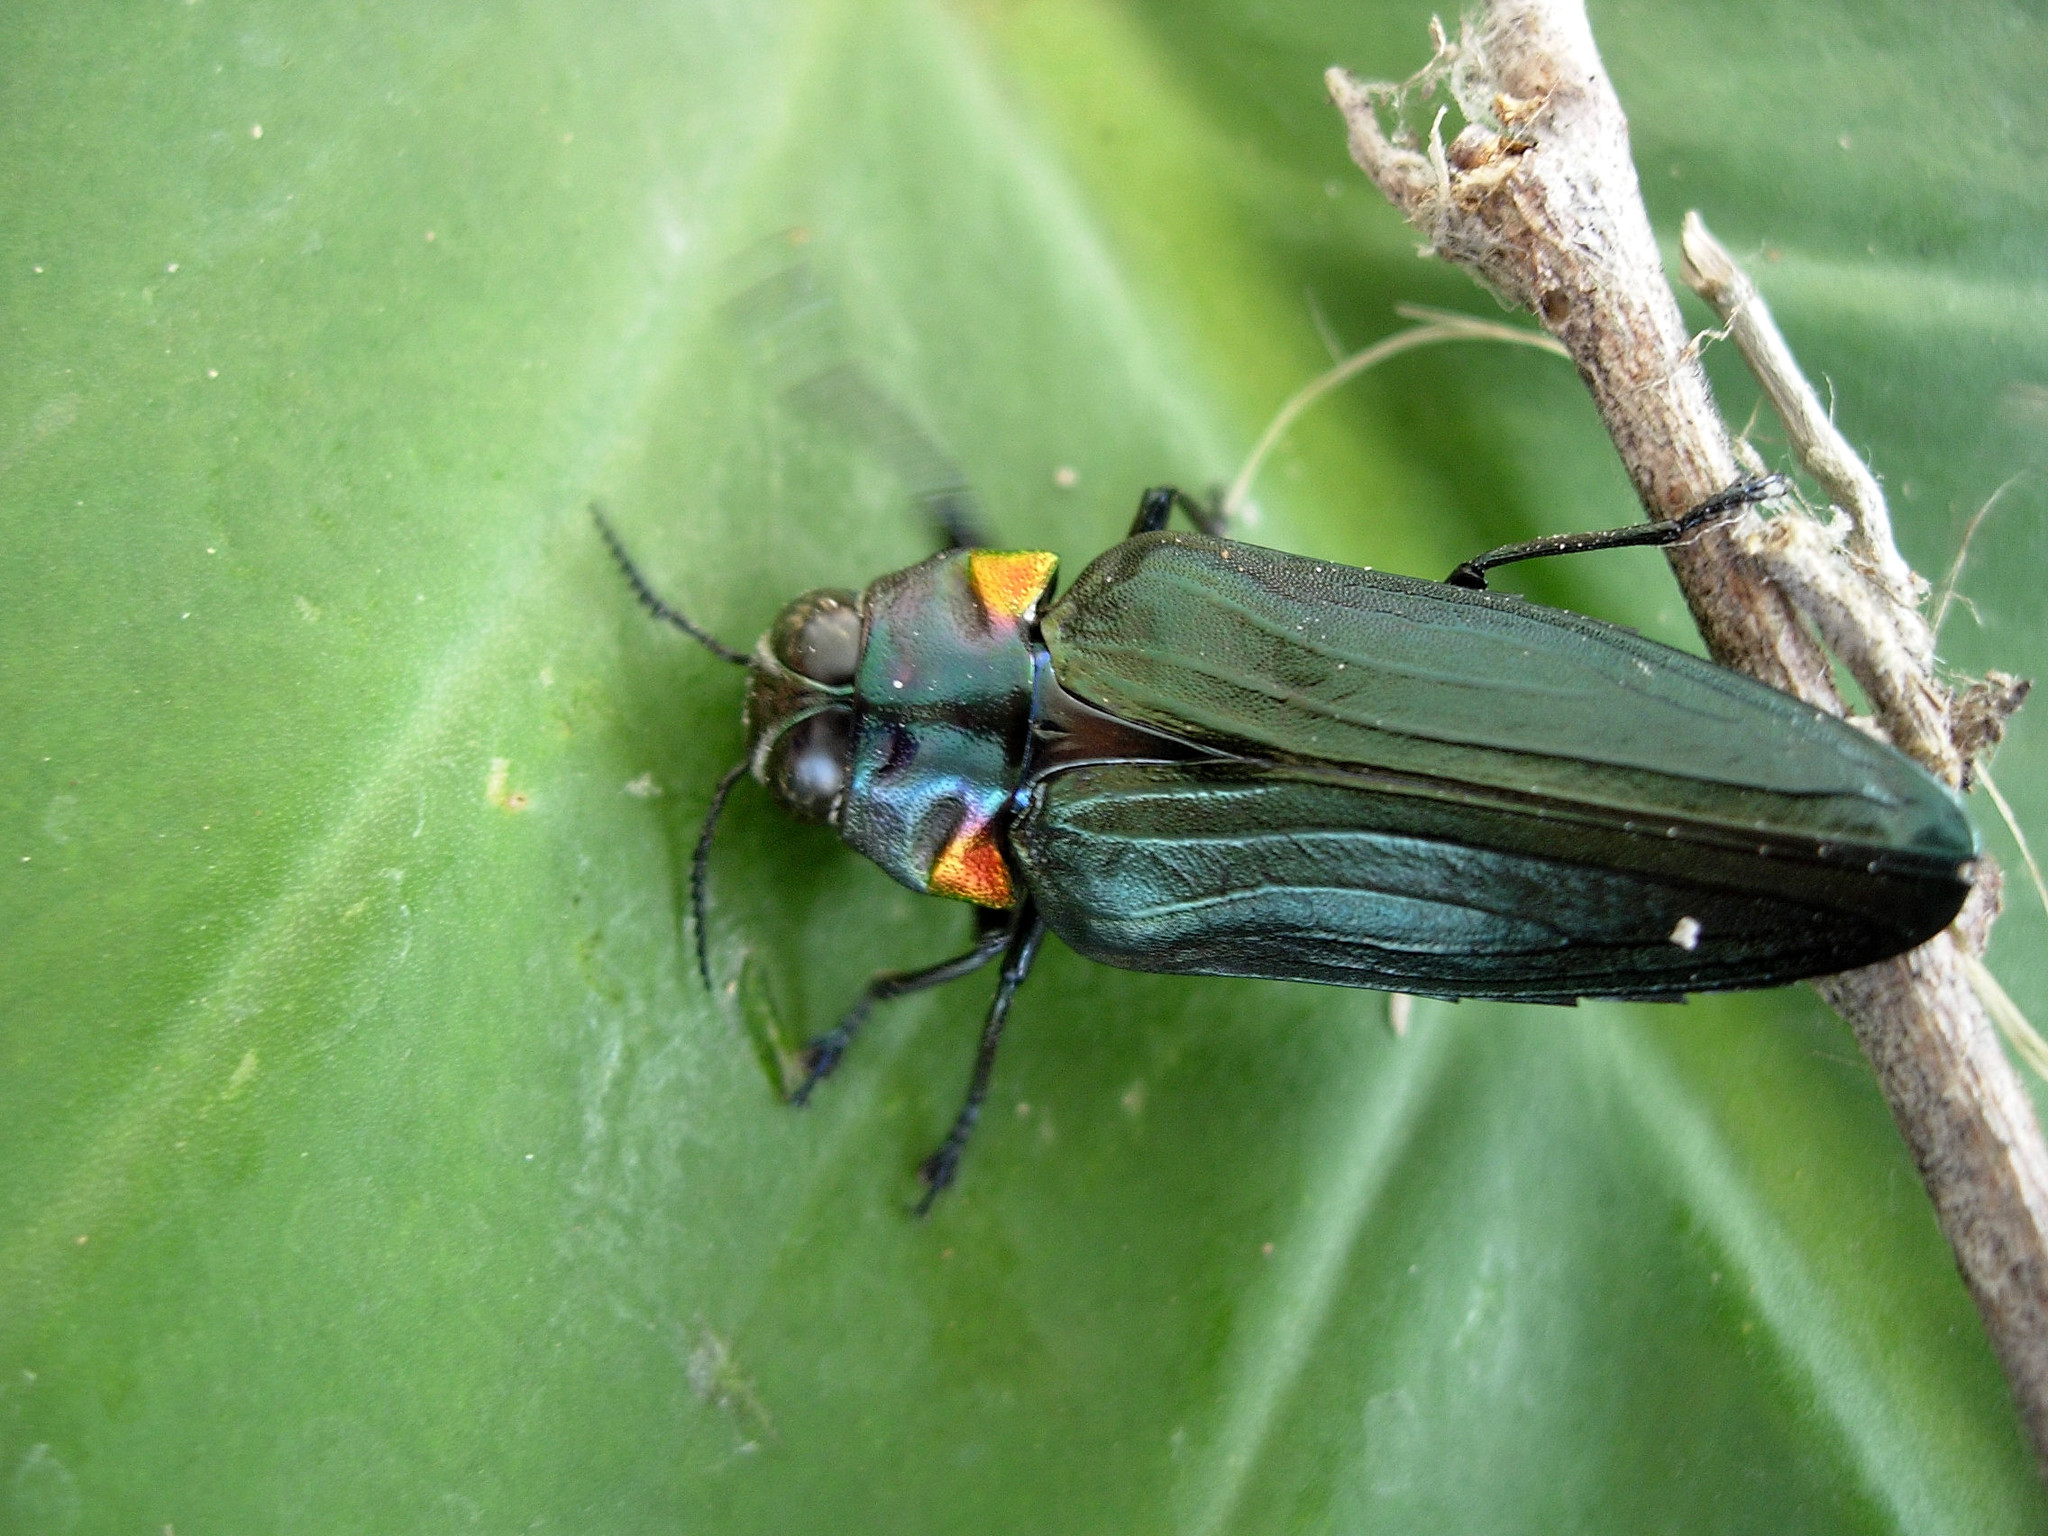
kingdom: Animalia
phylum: Arthropoda
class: Insecta
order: Coleoptera
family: Buprestidae
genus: Belionota
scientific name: Belionota prasina
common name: Jewel beetle
